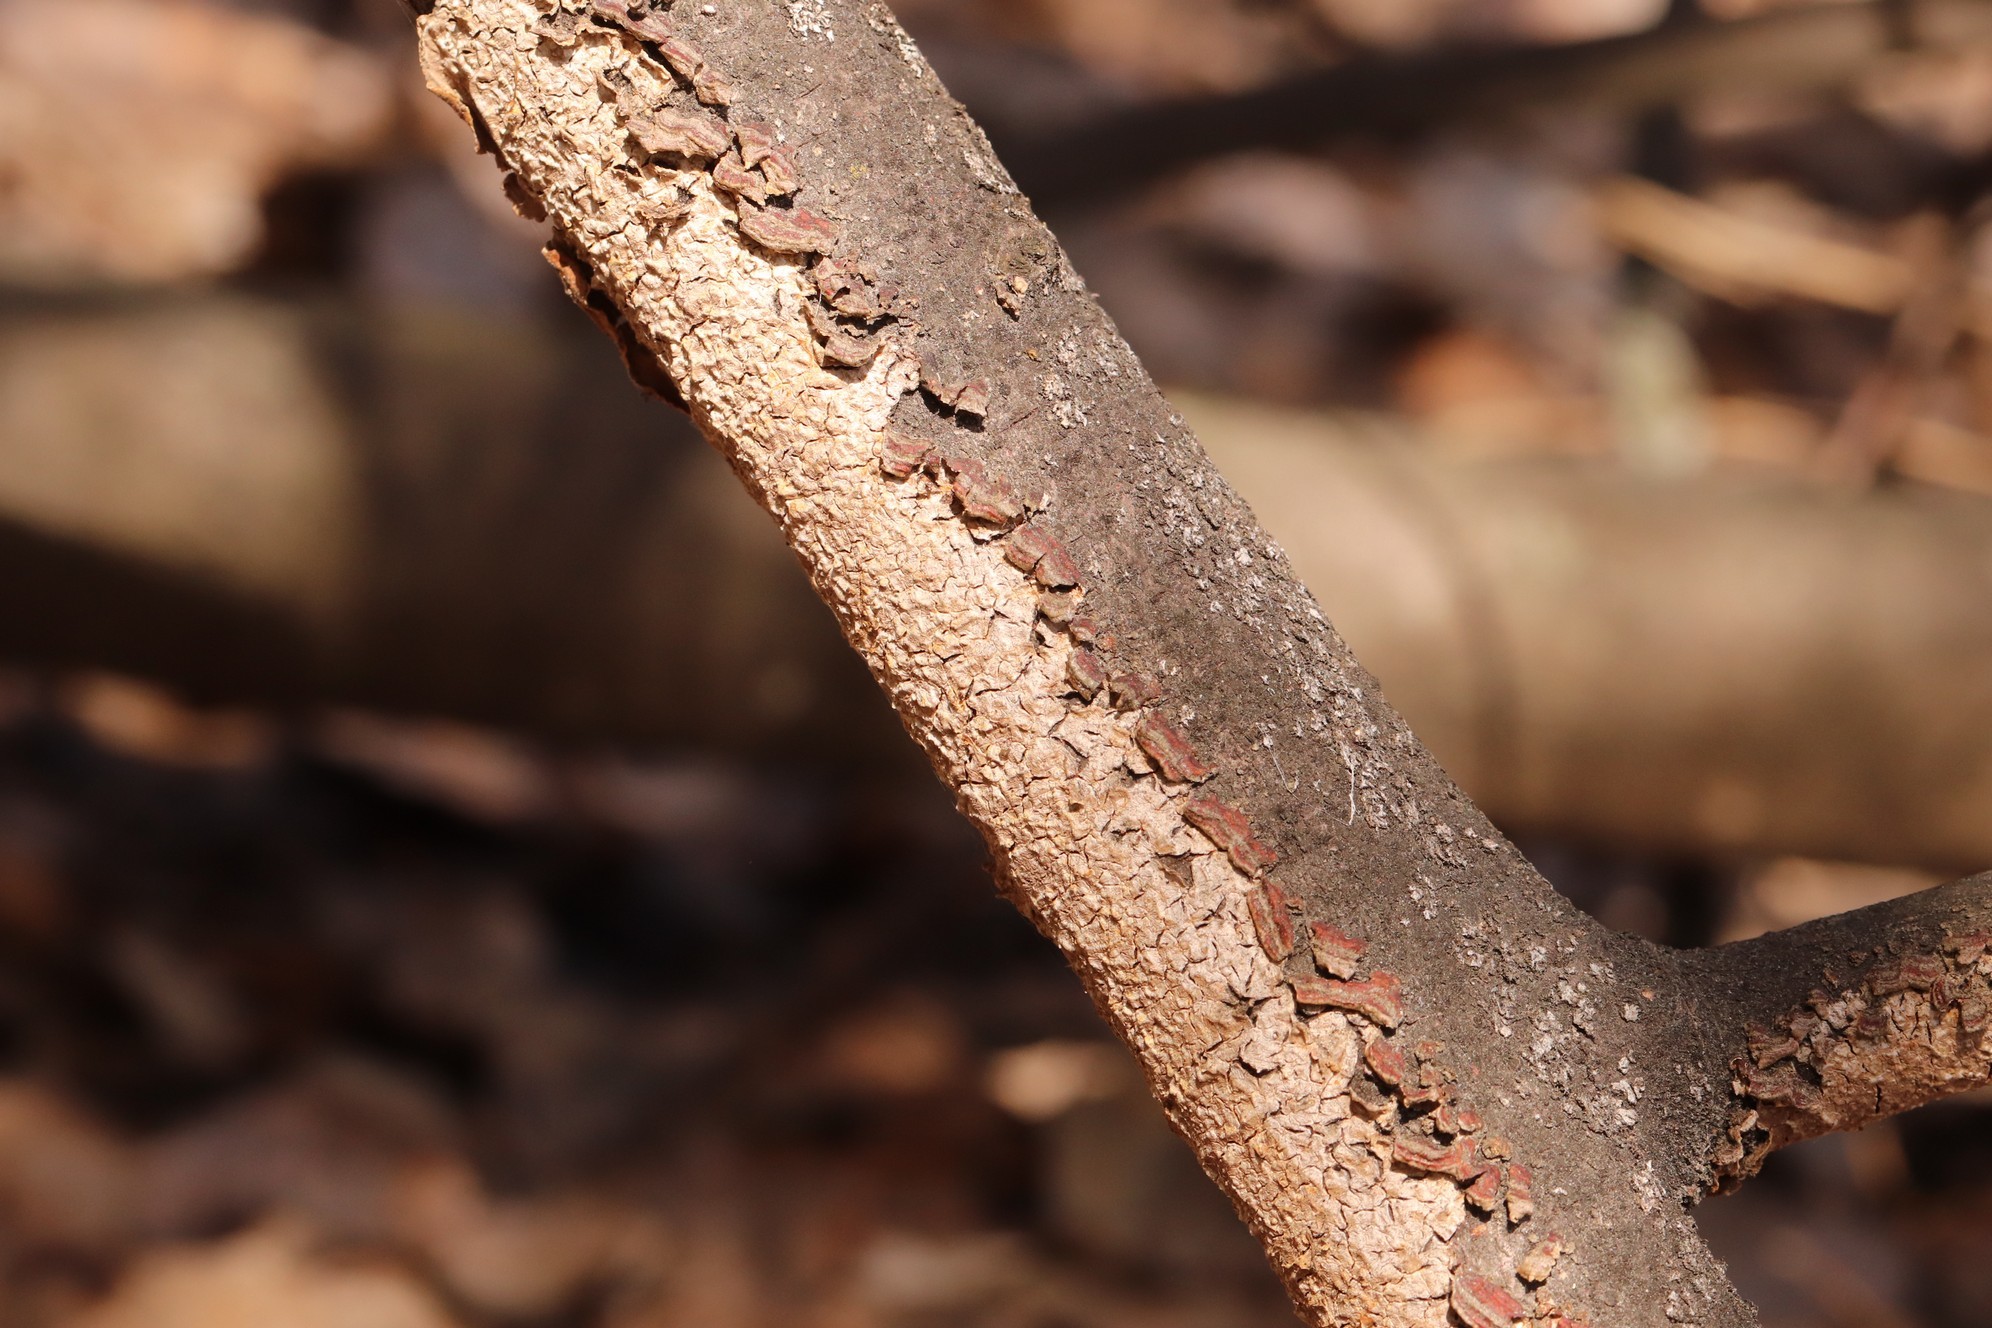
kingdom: Fungi
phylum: Basidiomycota
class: Agaricomycetes
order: Hymenochaetales
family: Hymenochaetaceae
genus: Hydnoporia
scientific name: Hydnoporia tabacina
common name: Willow glue
